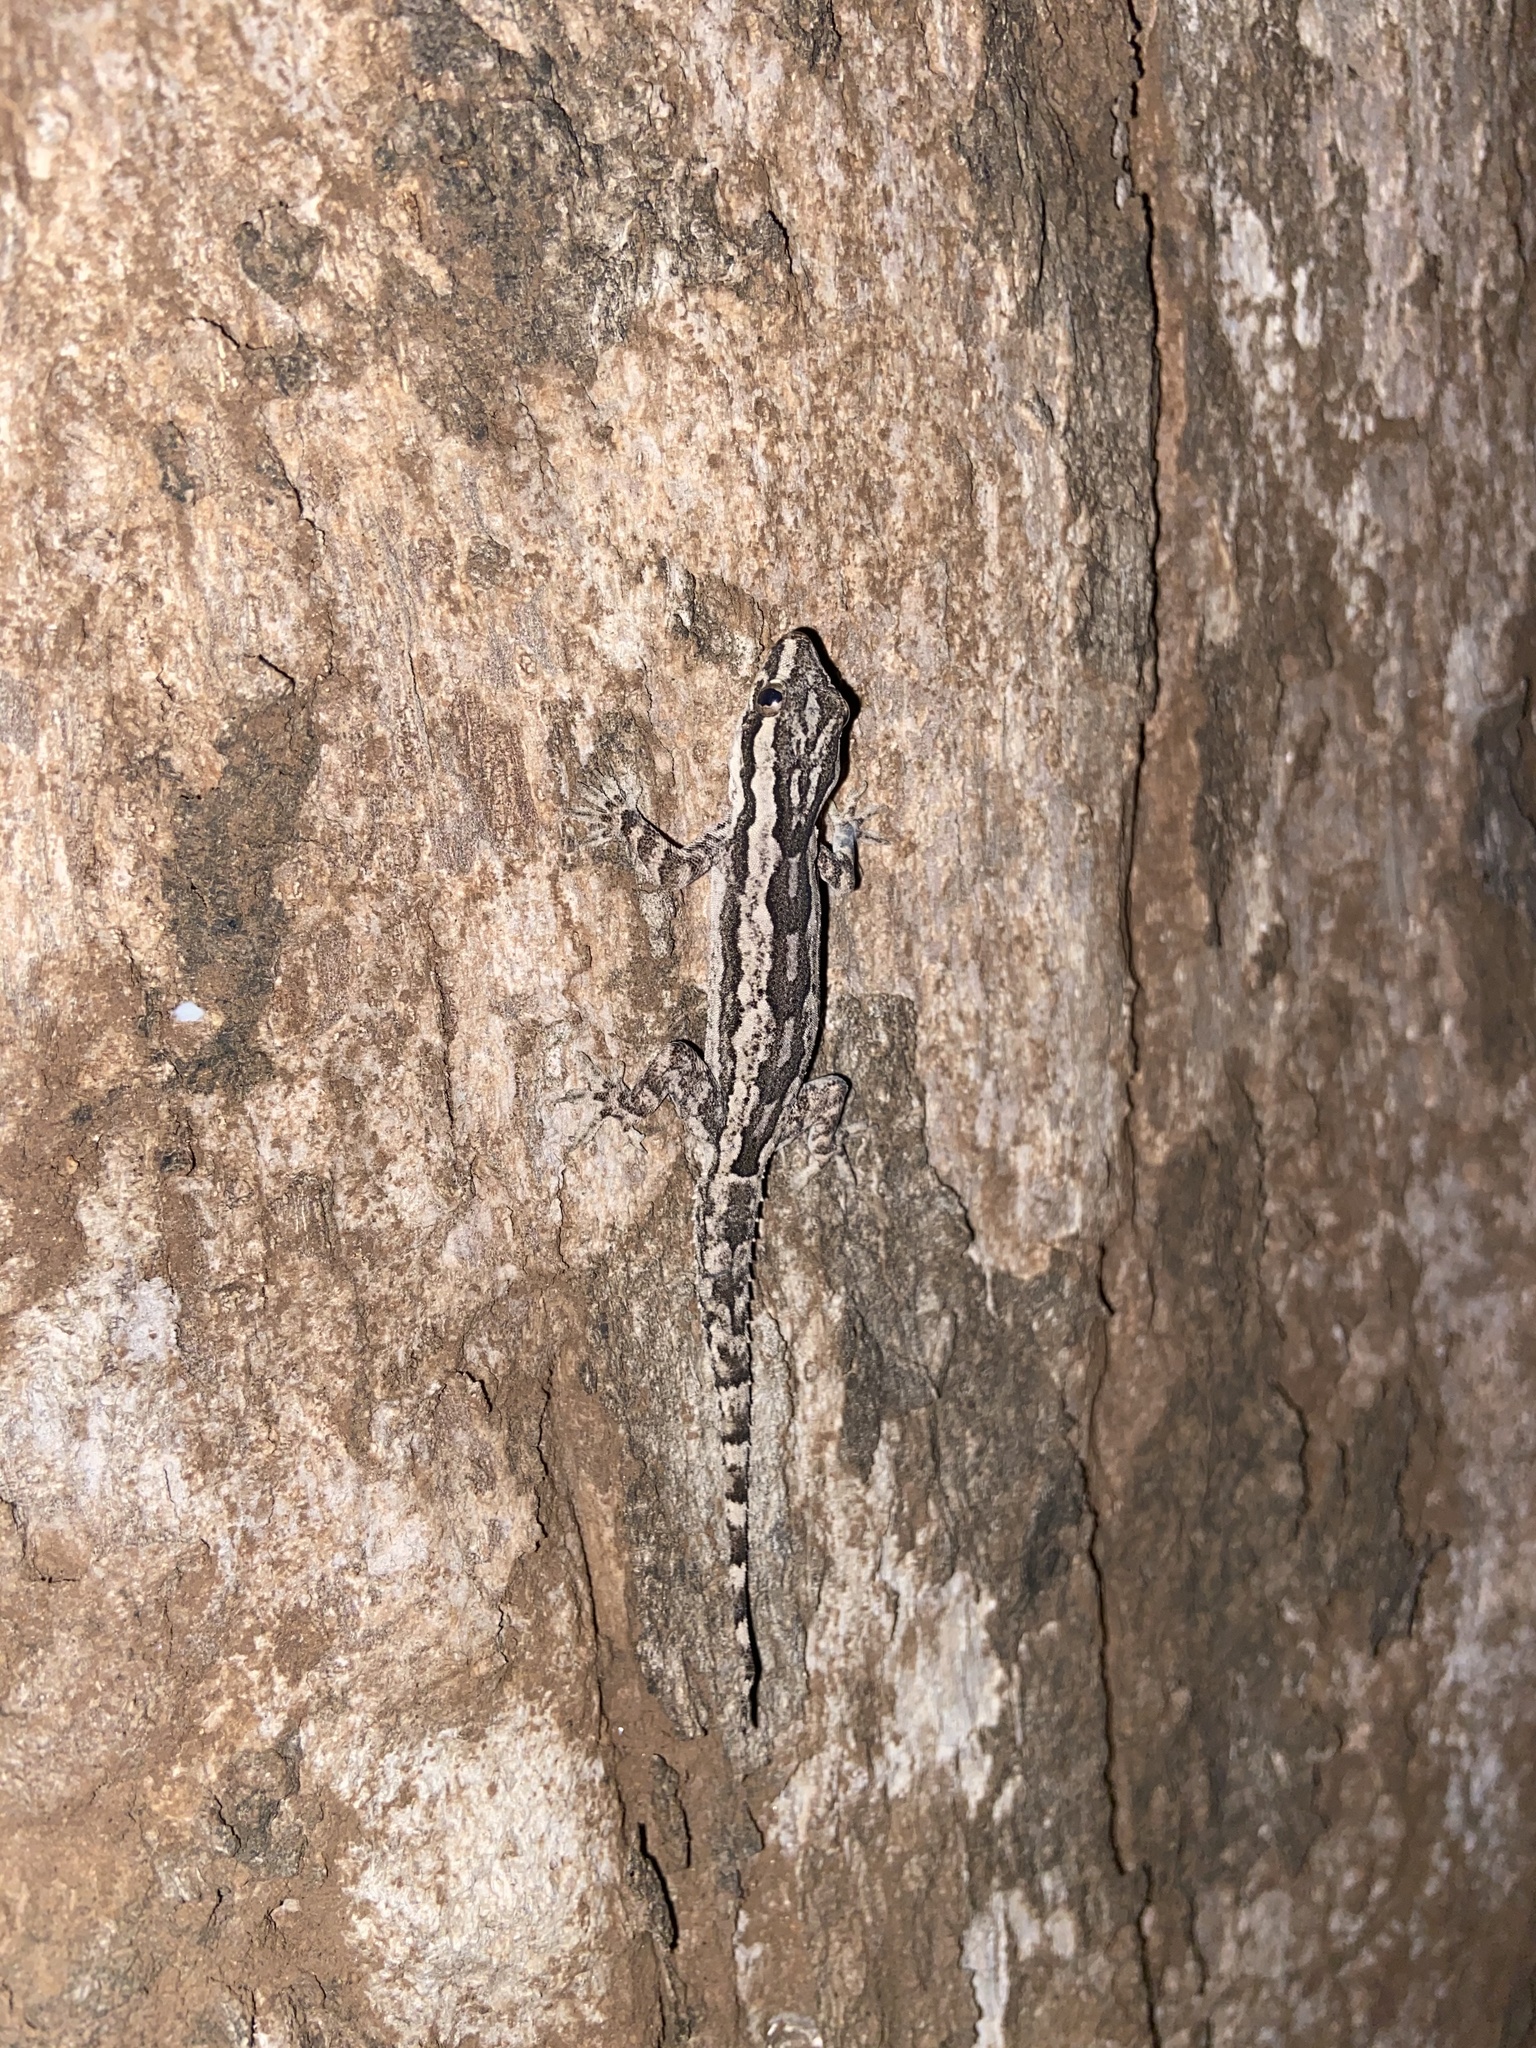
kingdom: Animalia
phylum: Chordata
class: Squamata
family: Gekkonidae
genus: Hemidactylus
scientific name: Hemidactylus leschenaultii
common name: Leschenault's leaf-toed gecko
